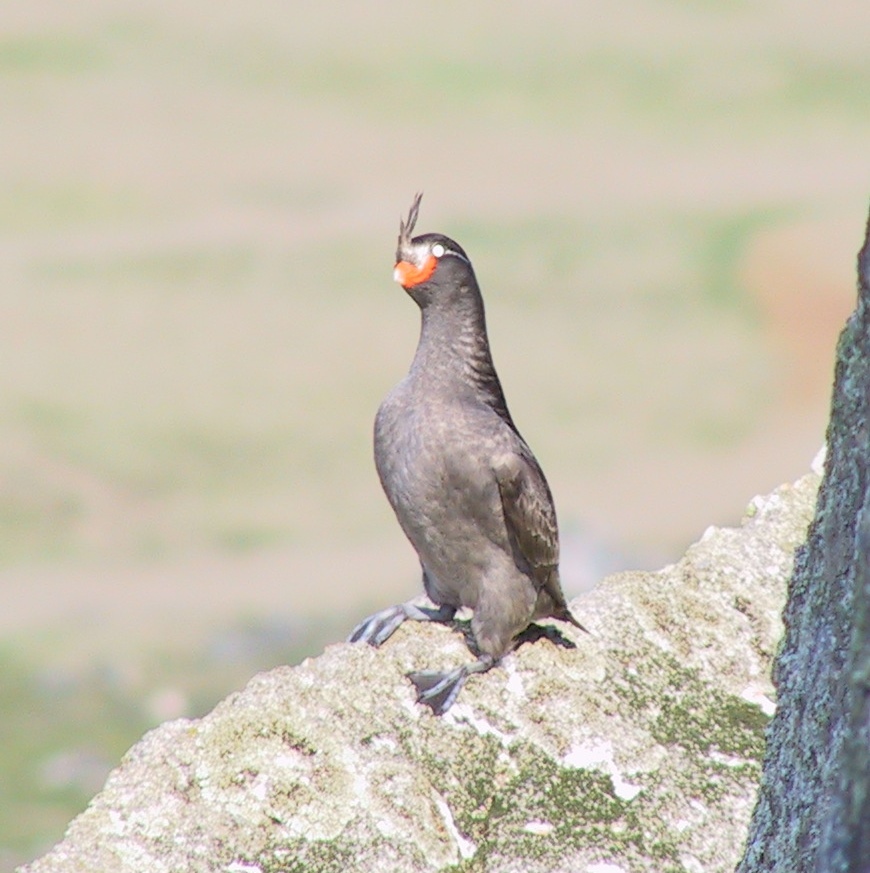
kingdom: Animalia
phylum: Chordata
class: Aves
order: Charadriiformes
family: Alcidae
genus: Aethia
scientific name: Aethia cristatella
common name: Crested auklet
